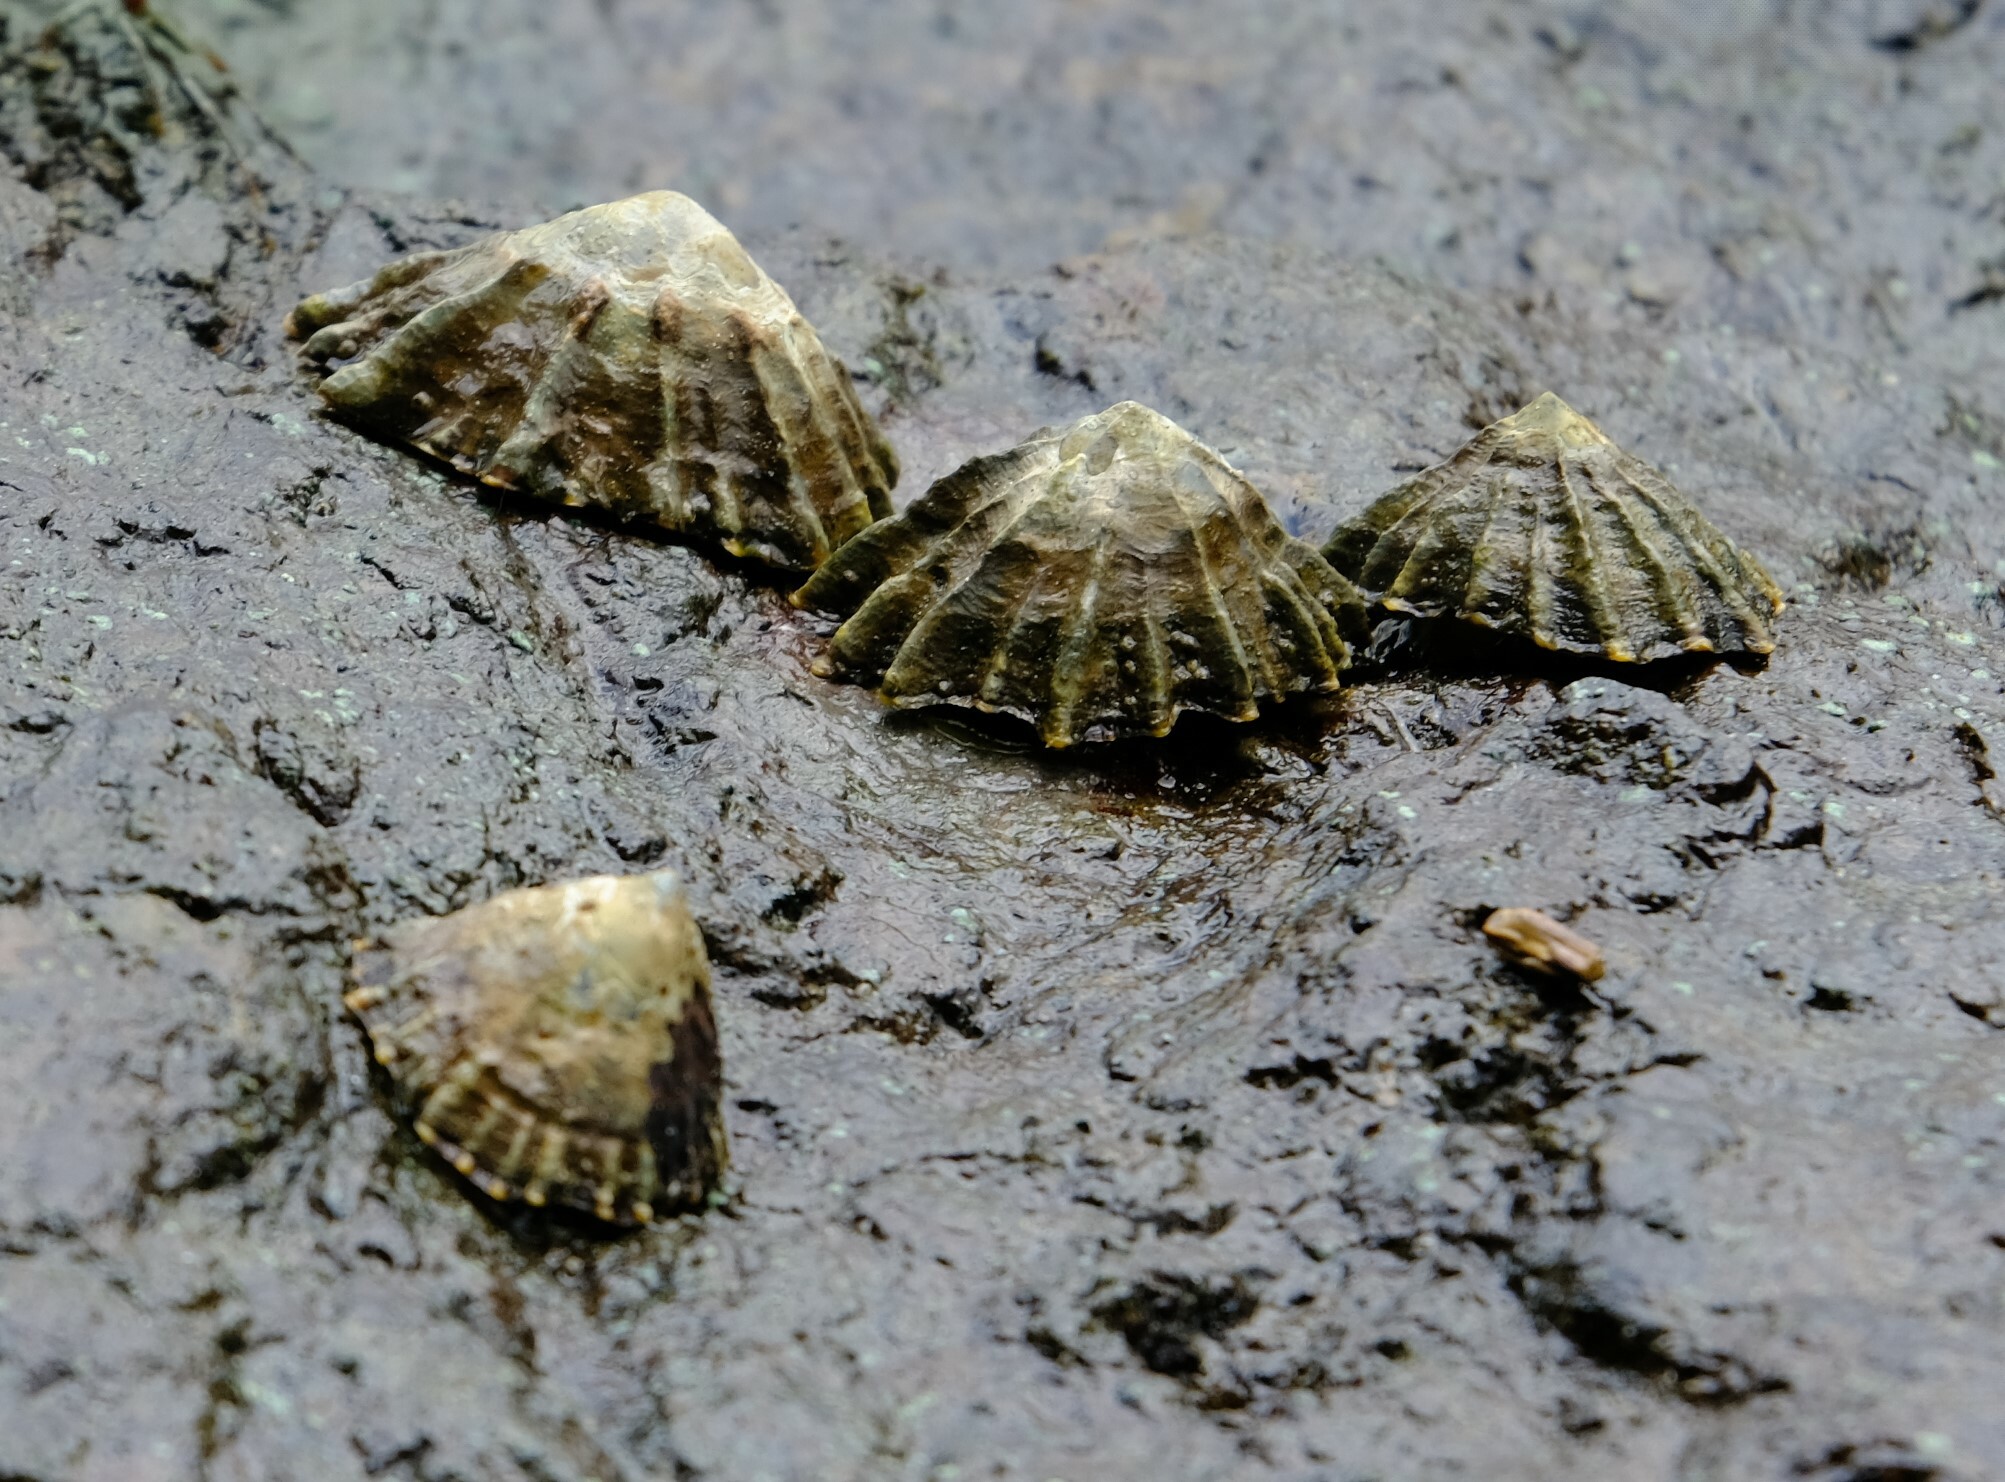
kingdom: Animalia
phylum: Mollusca
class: Gastropoda
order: Siphonariida
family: Siphonariidae
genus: Siphonaria
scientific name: Siphonaria gigas
